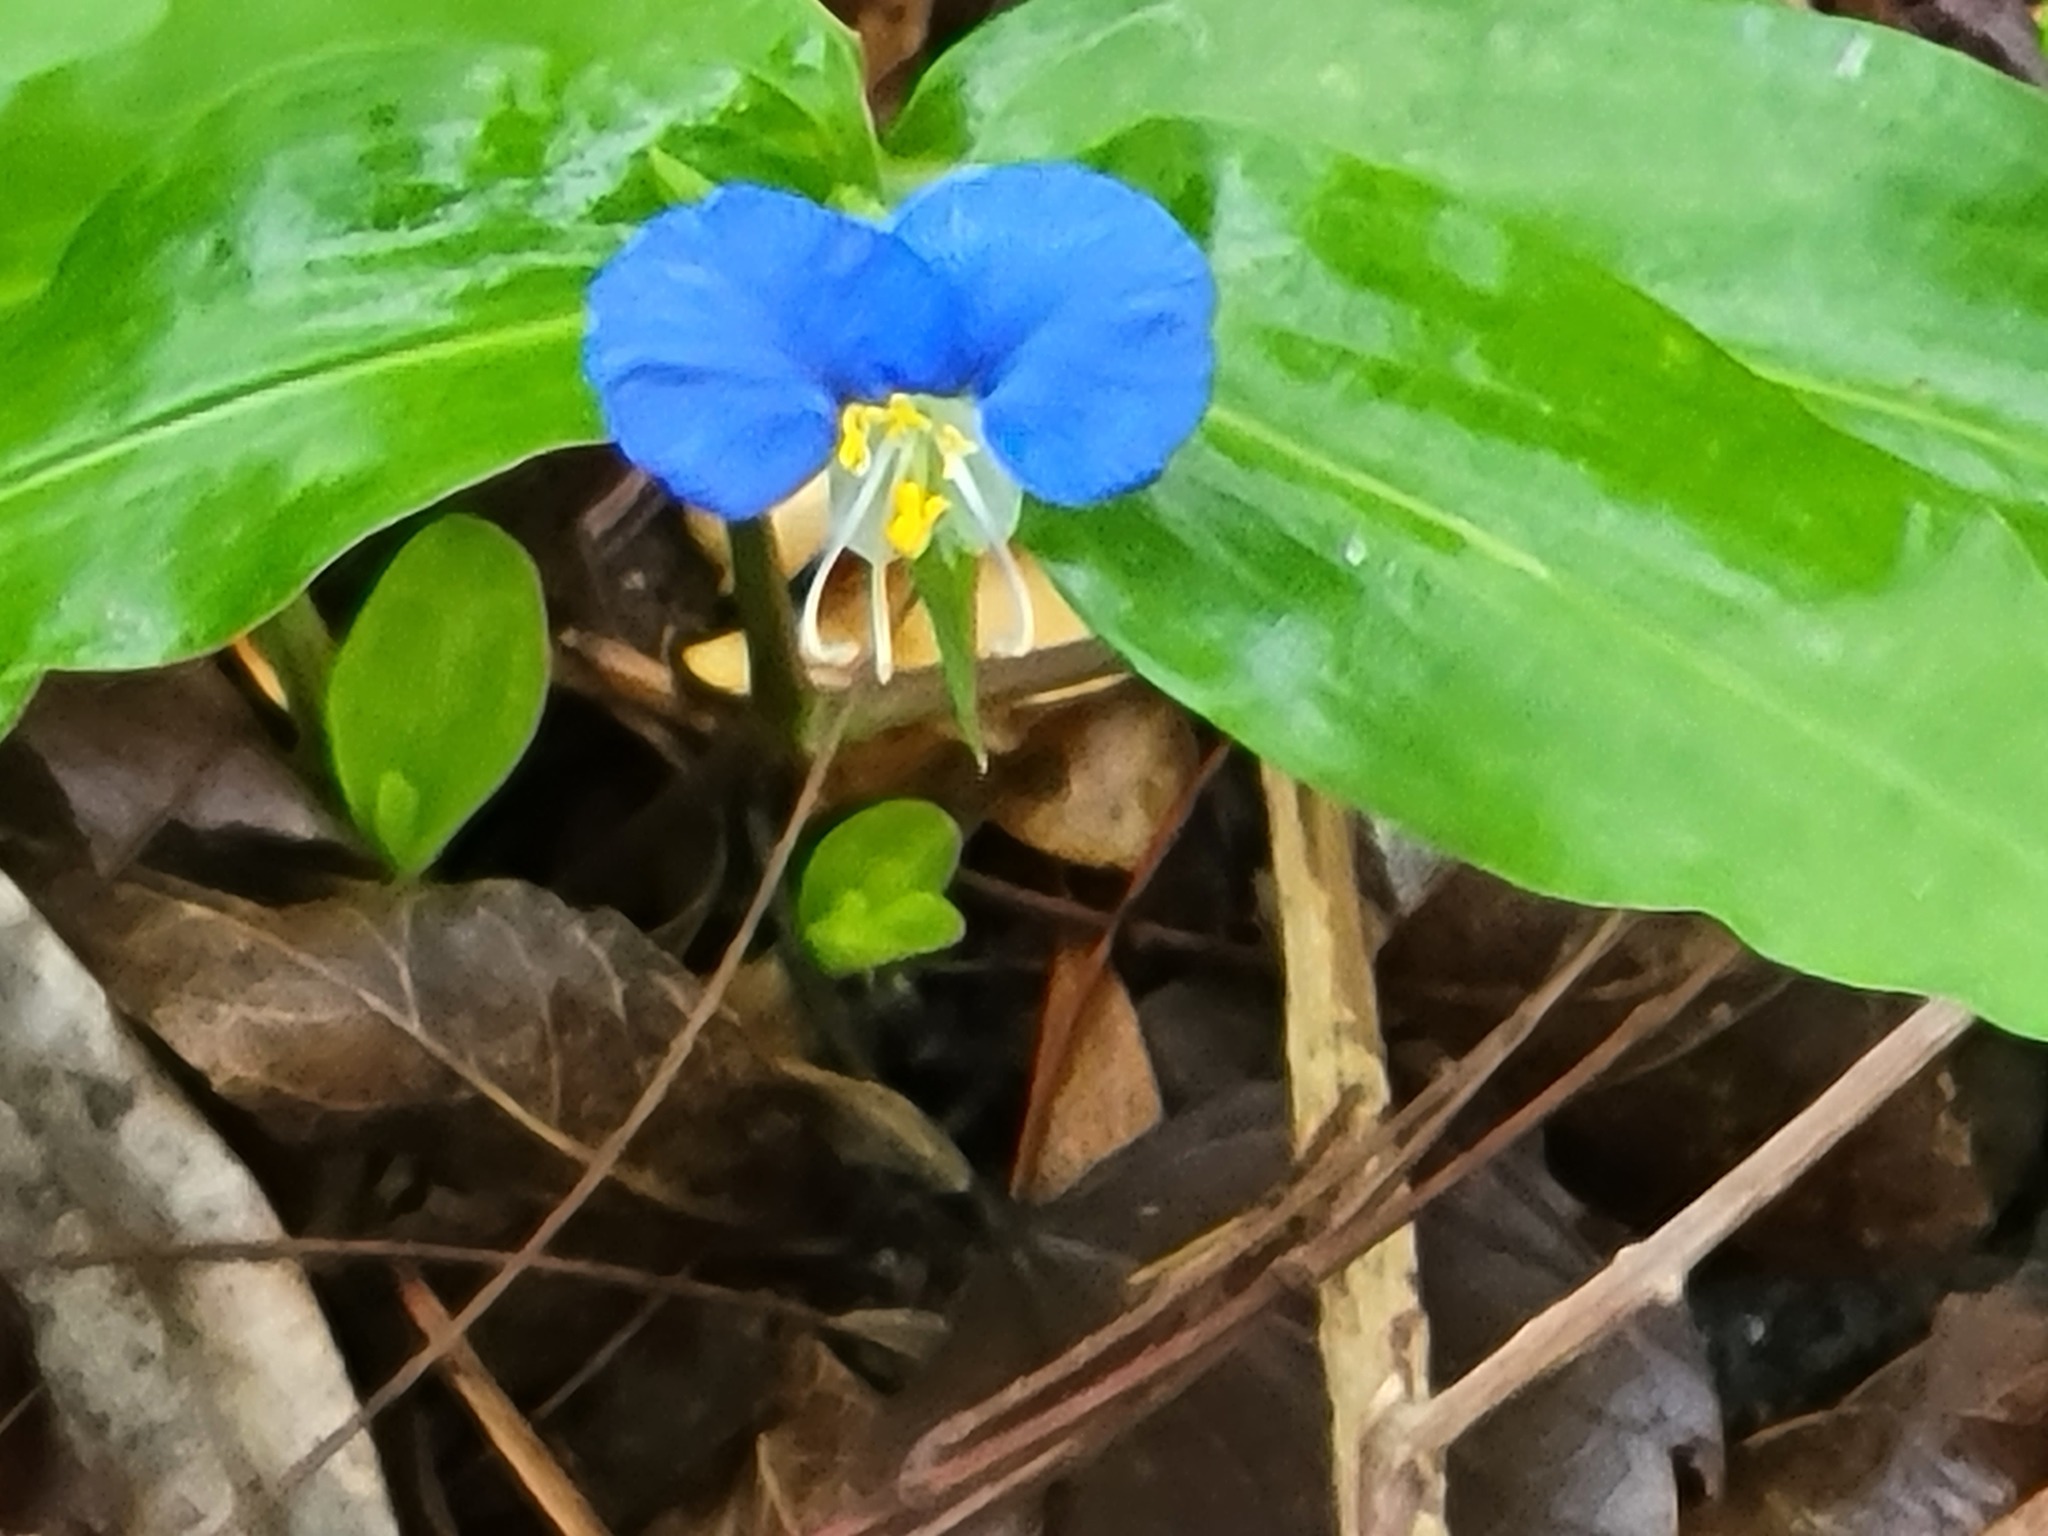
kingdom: Plantae
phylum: Tracheophyta
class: Liliopsida
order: Commelinales
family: Commelinaceae
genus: Commelina
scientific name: Commelina erecta
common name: Blousel blommetjie
